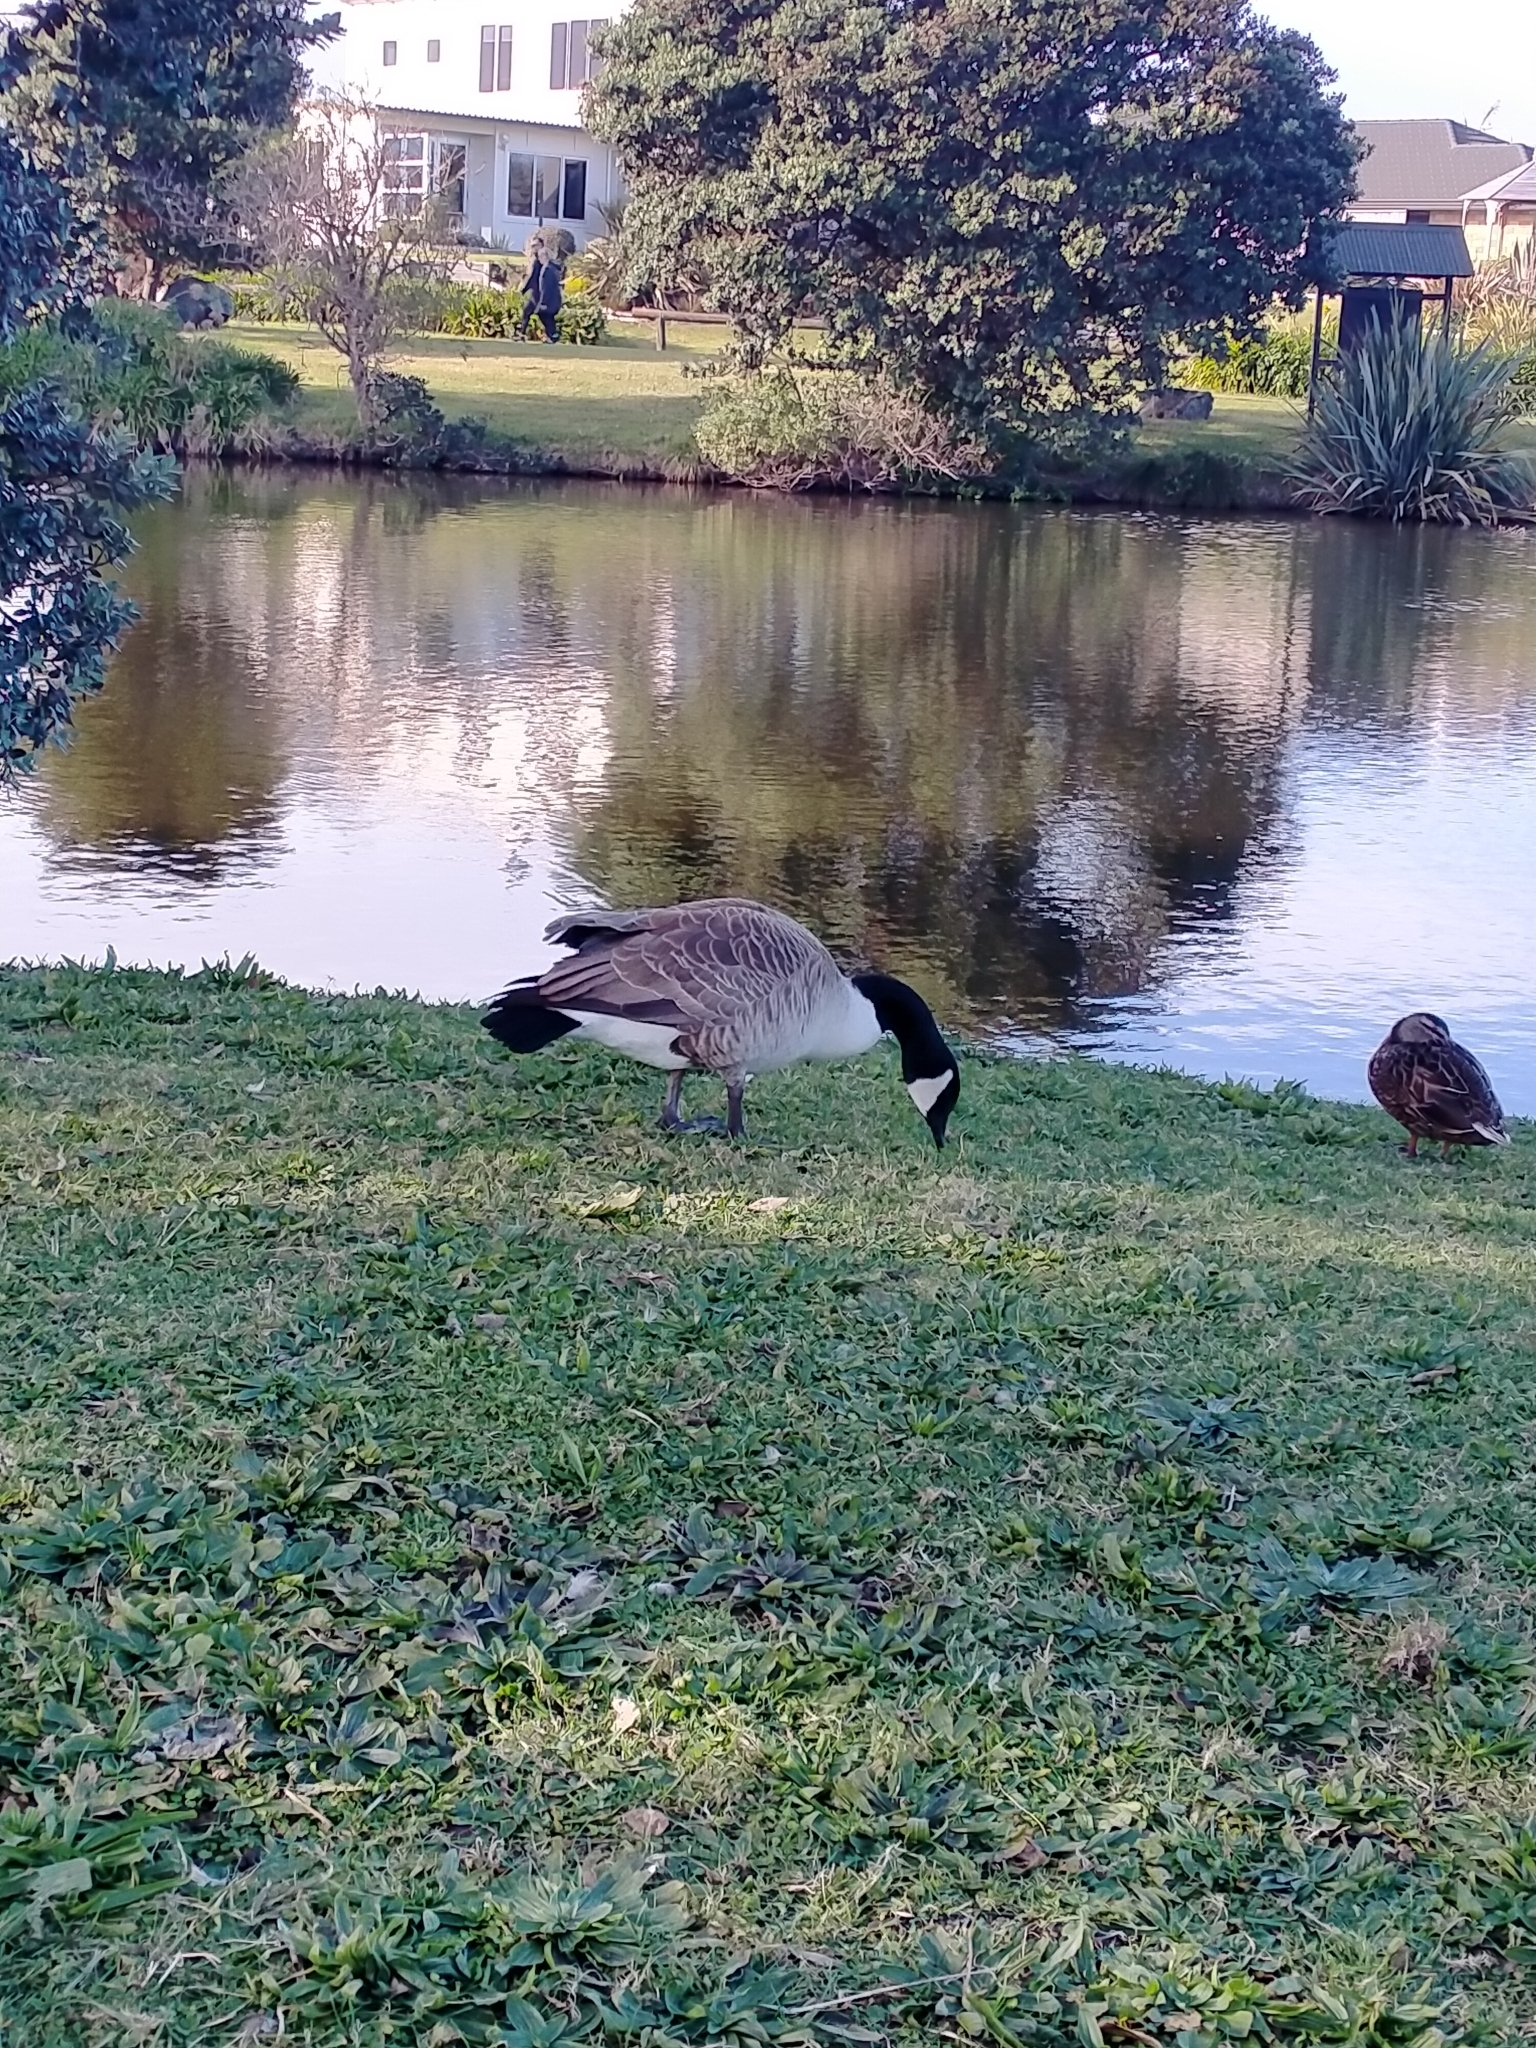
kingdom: Animalia
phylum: Chordata
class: Aves
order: Anseriformes
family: Anatidae
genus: Branta
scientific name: Branta canadensis
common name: Canada goose
